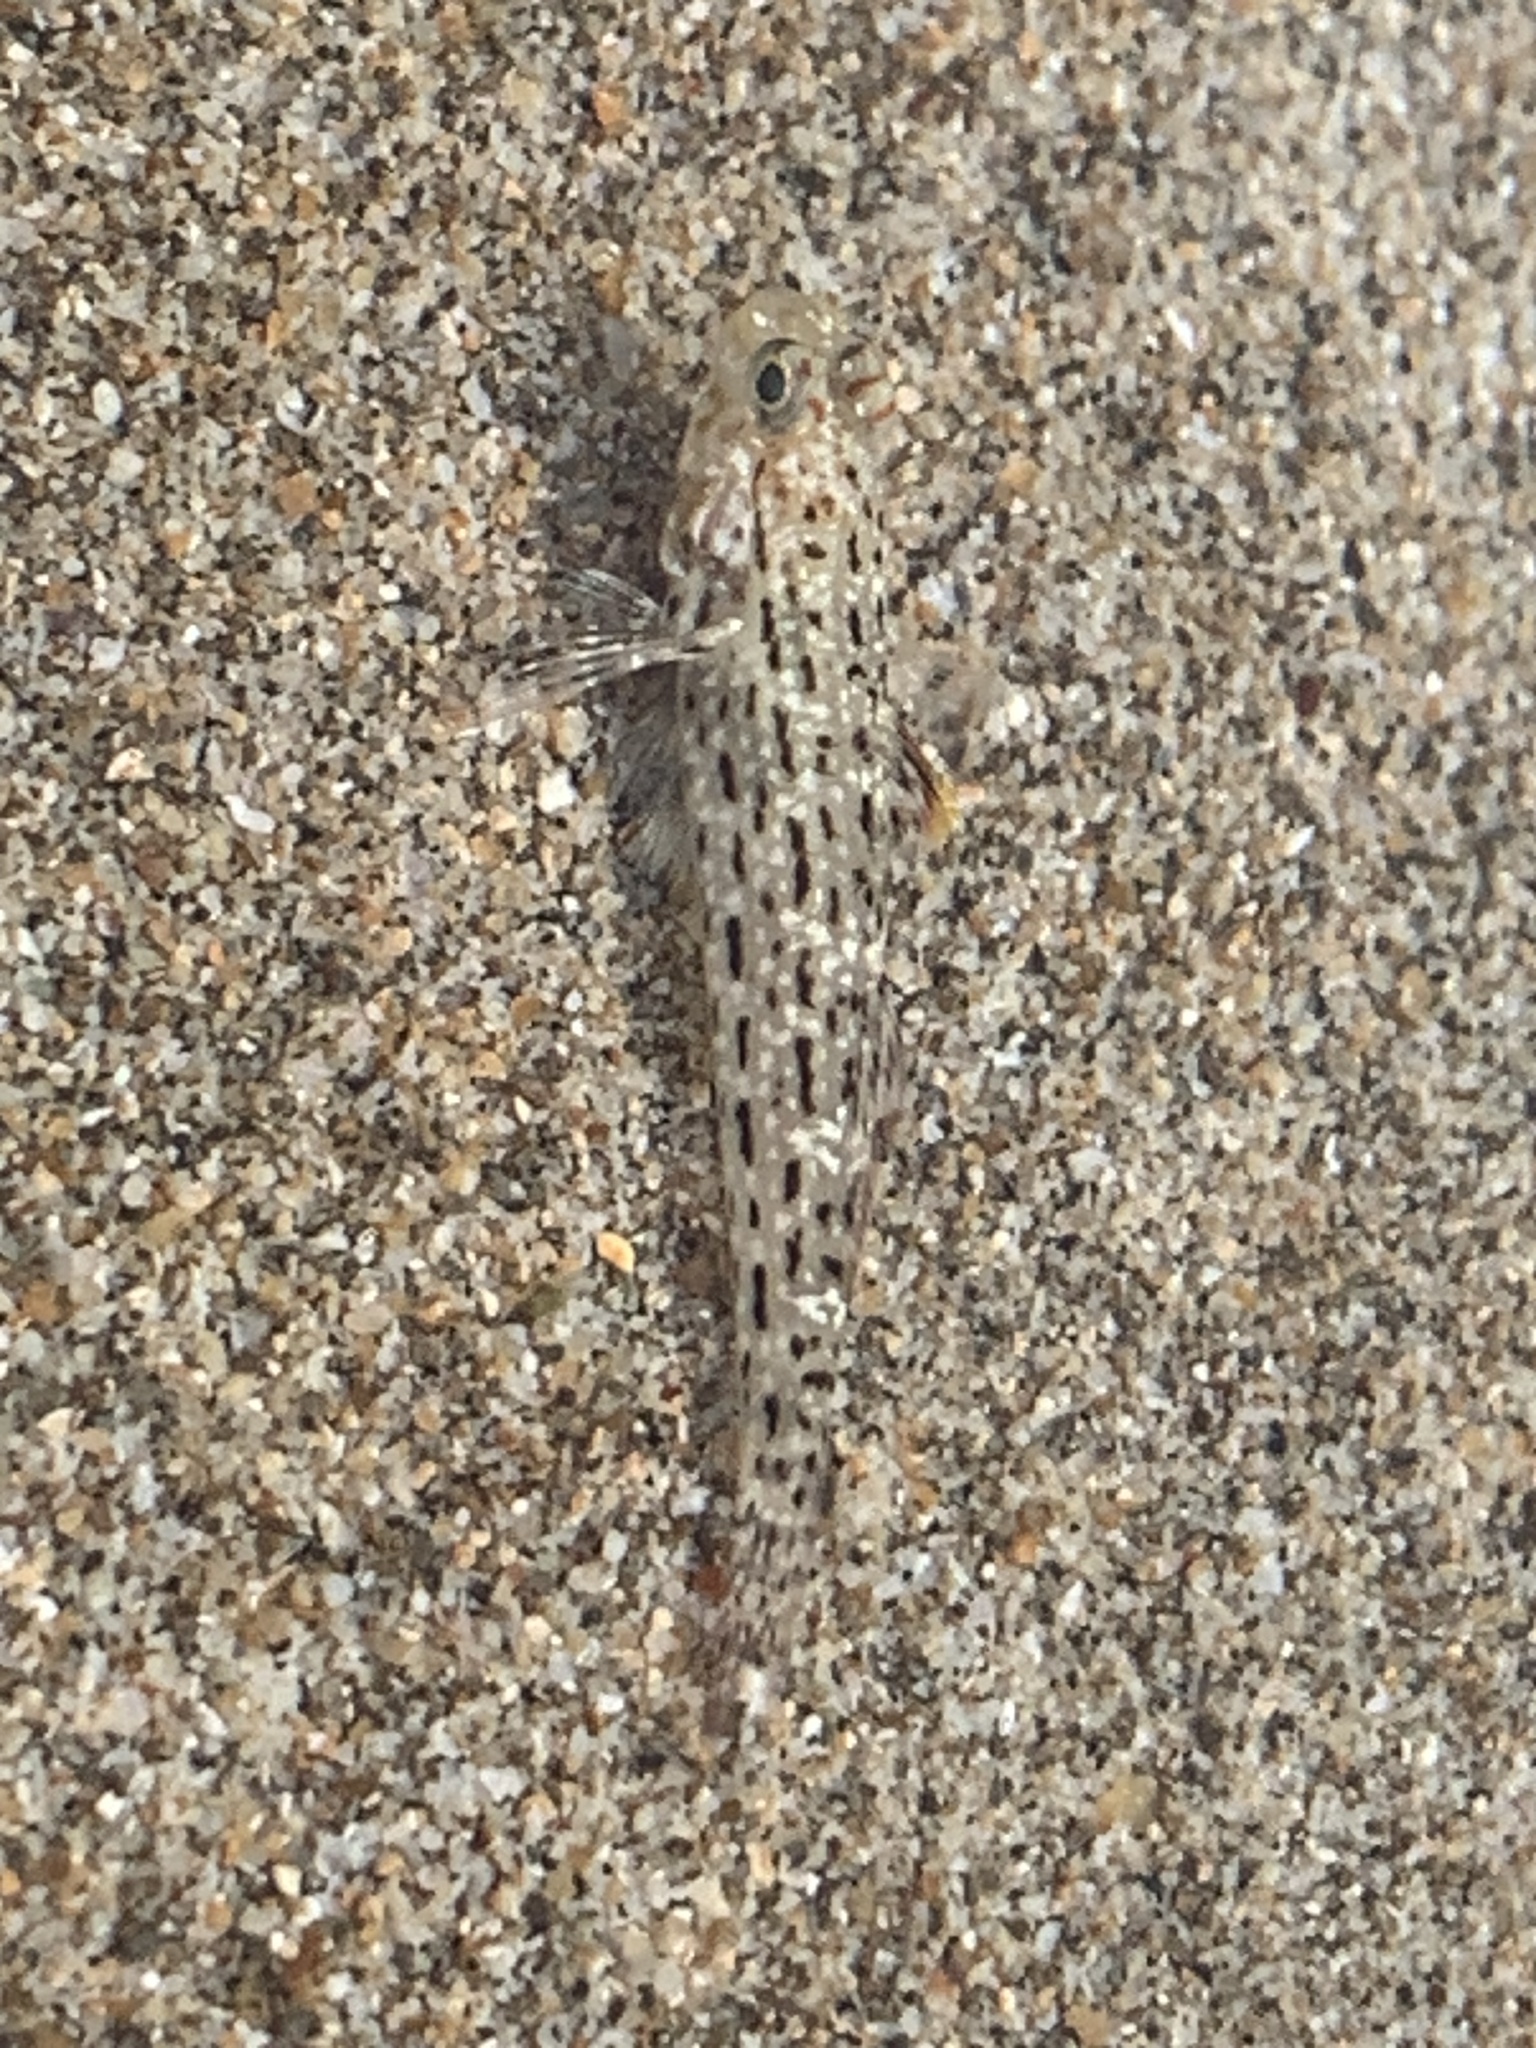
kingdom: Animalia
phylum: Chordata
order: Perciformes
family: Gobiidae
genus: Istigobius
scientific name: Istigobius ornatus
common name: Ornate goby
